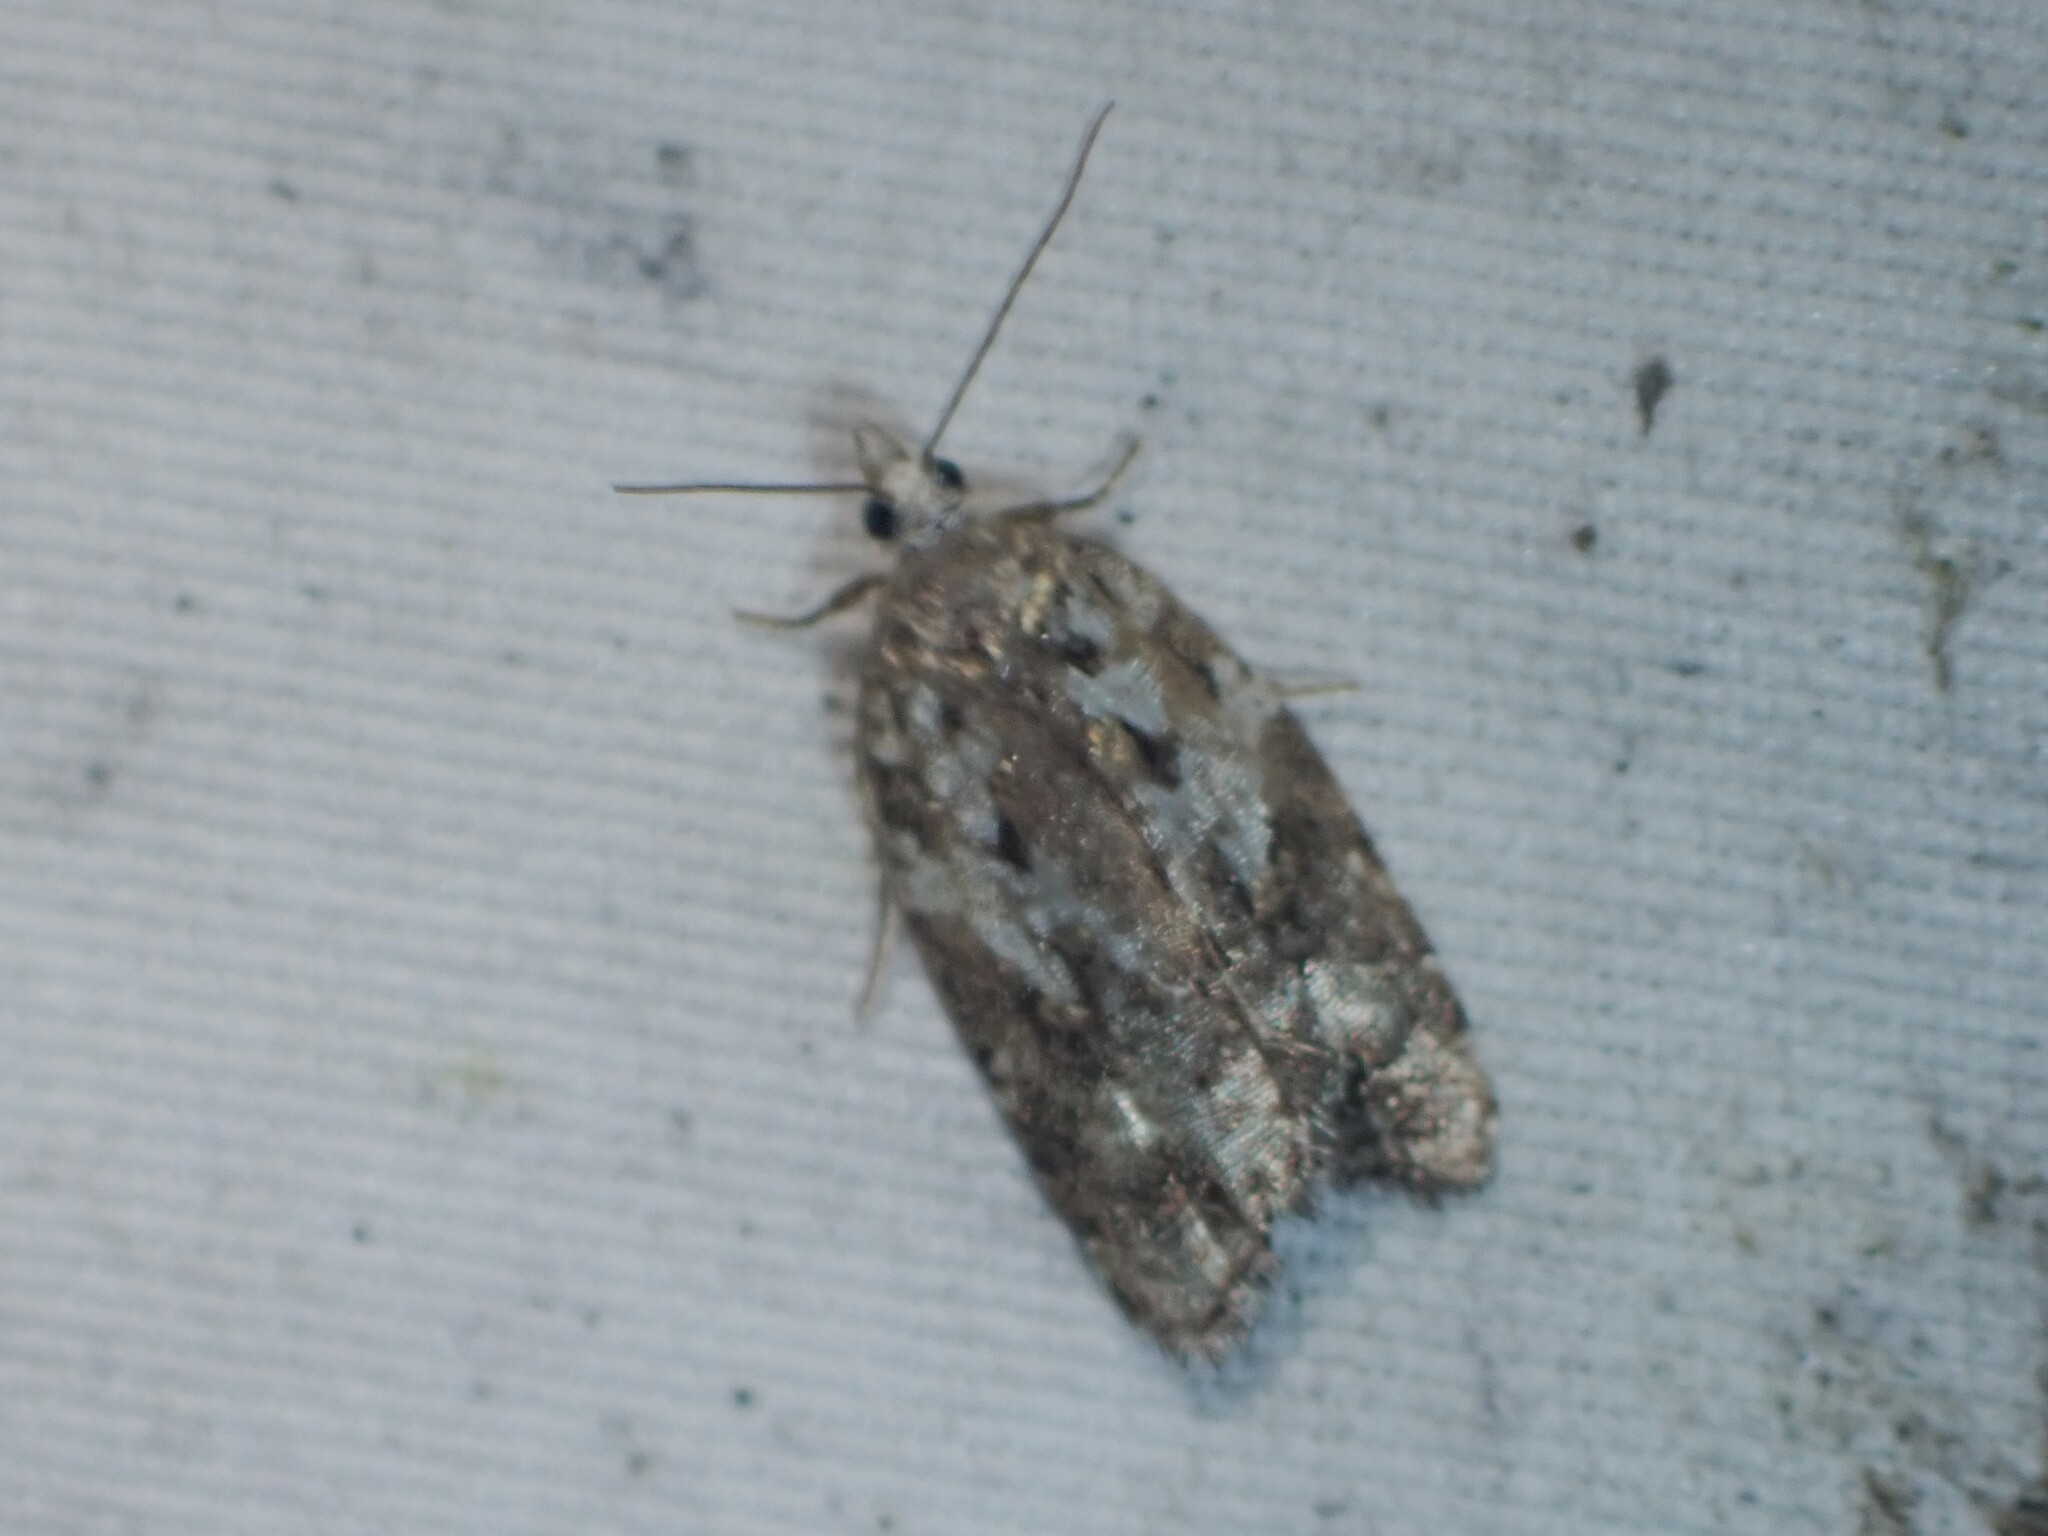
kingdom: Animalia
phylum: Arthropoda
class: Insecta
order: Lepidoptera
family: Tortricidae
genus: Acleris
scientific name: Acleris variana
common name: Eastern black-headed budworm moth
